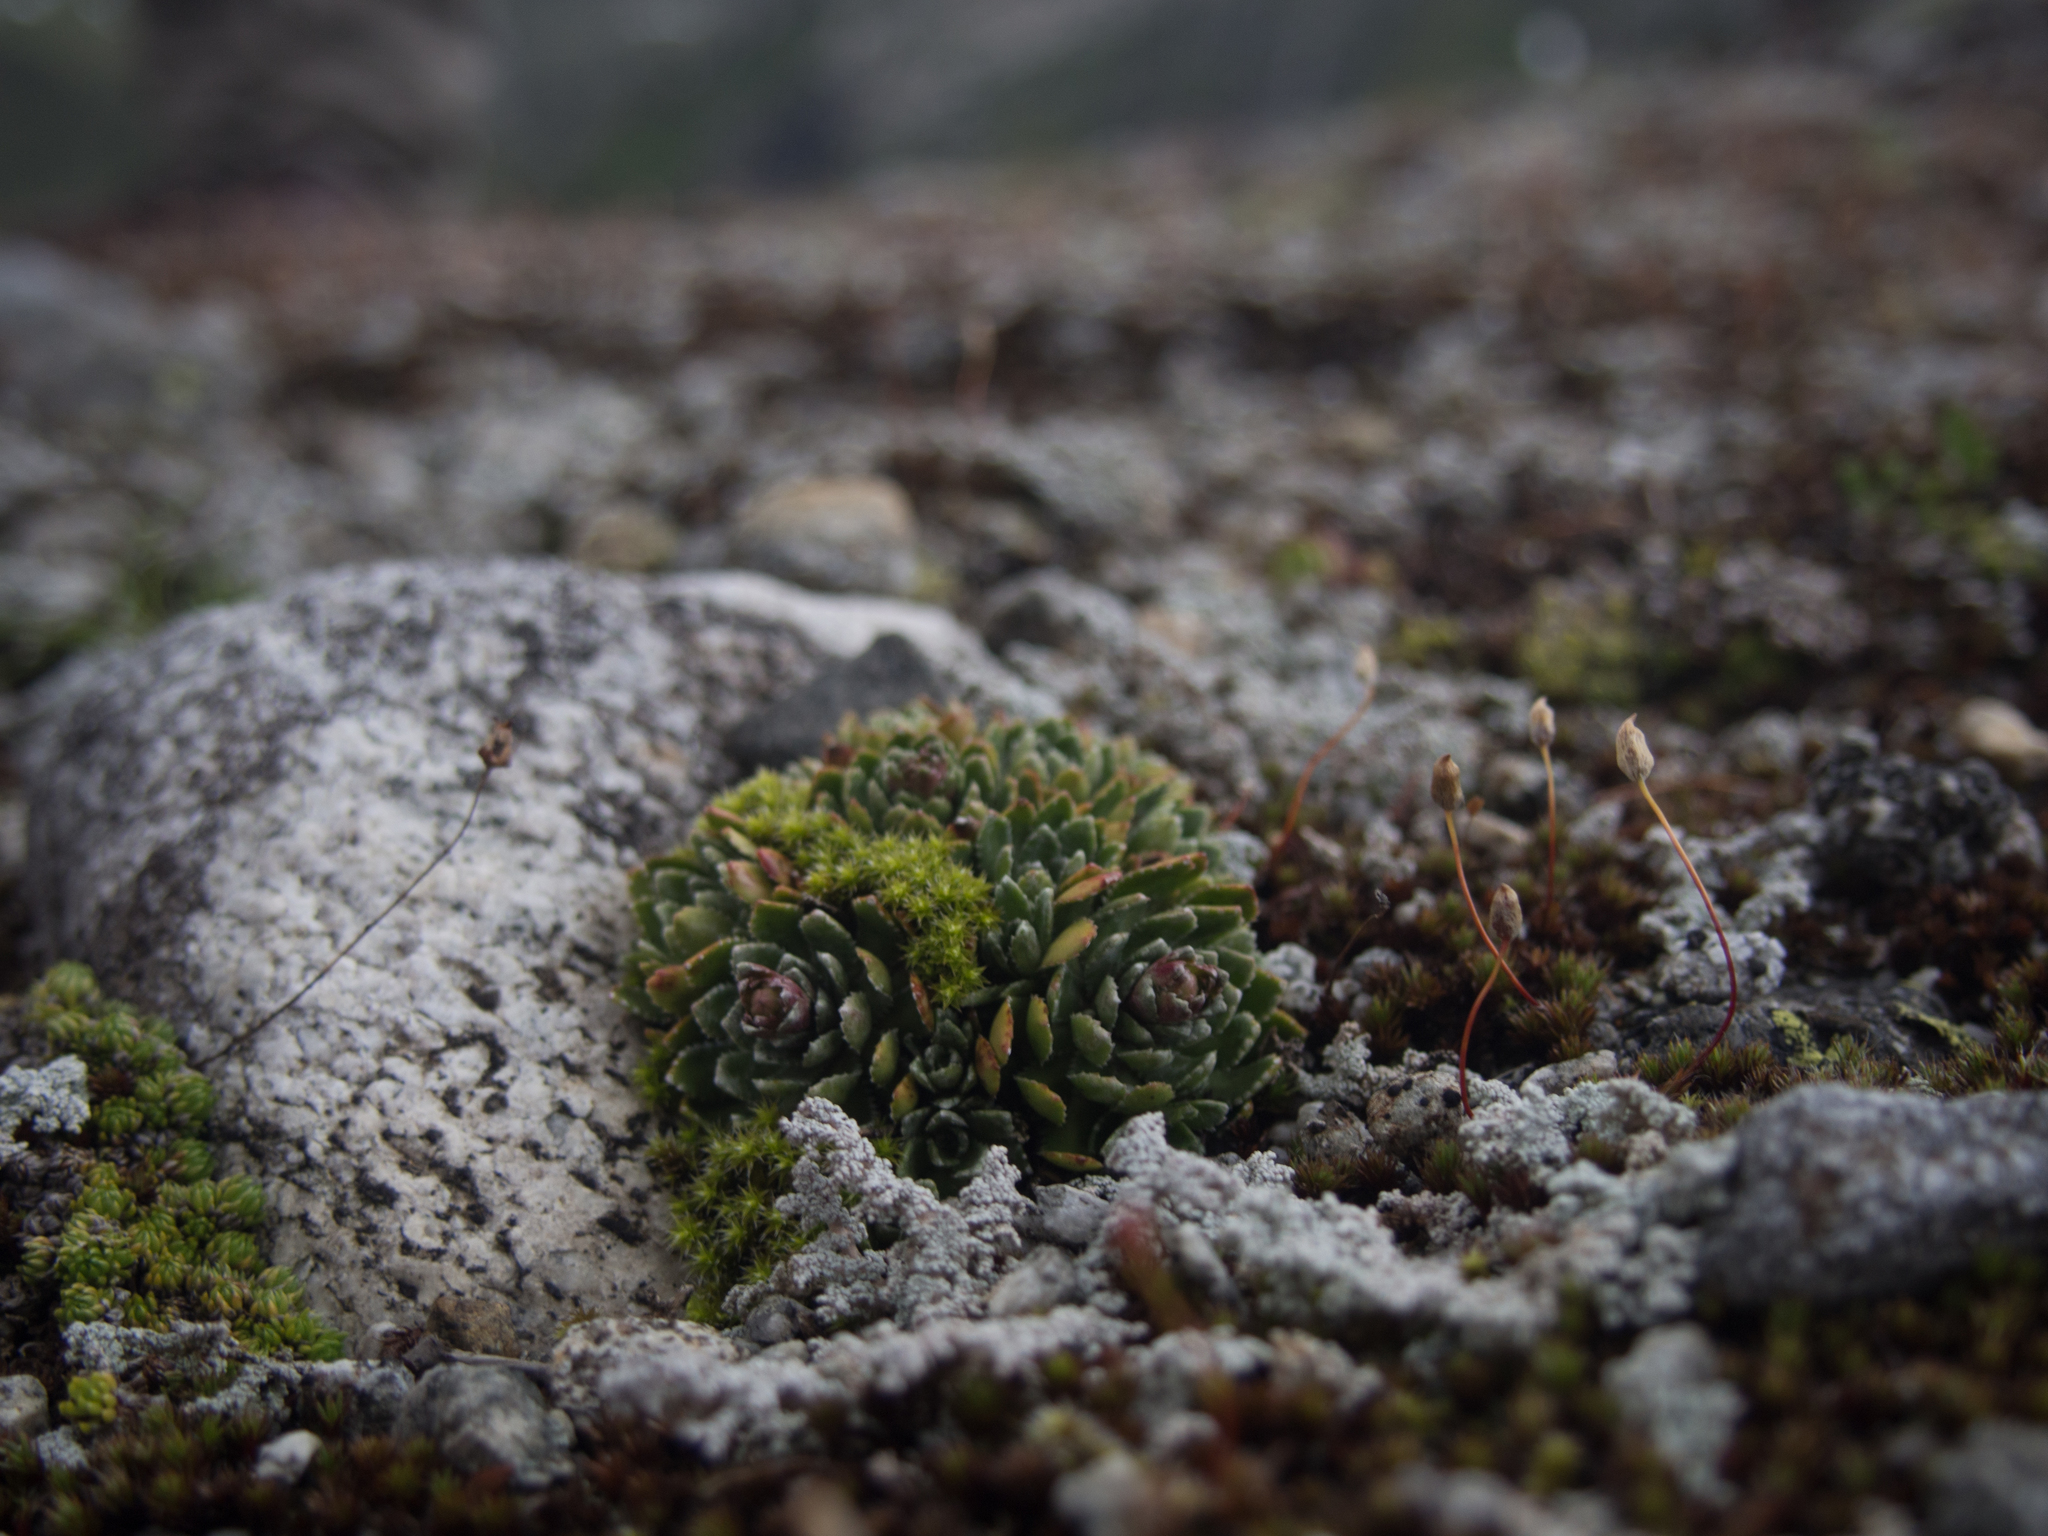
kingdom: Plantae
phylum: Tracheophyta
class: Magnoliopsida
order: Saxifragales
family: Saxifragaceae
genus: Saxifraga
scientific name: Saxifraga paniculata
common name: Livelong saxifrage
